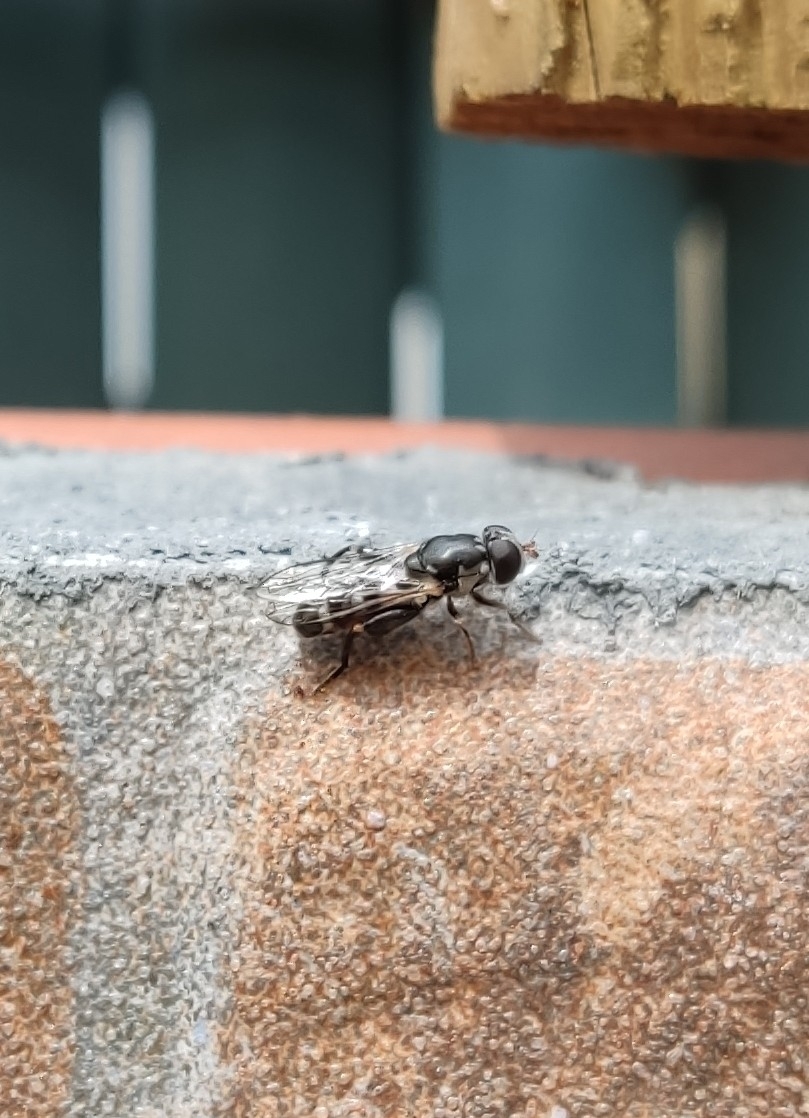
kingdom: Animalia
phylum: Arthropoda
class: Insecta
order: Diptera
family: Syrphidae
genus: Syritta
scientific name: Syritta pipiens
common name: Hover fly
